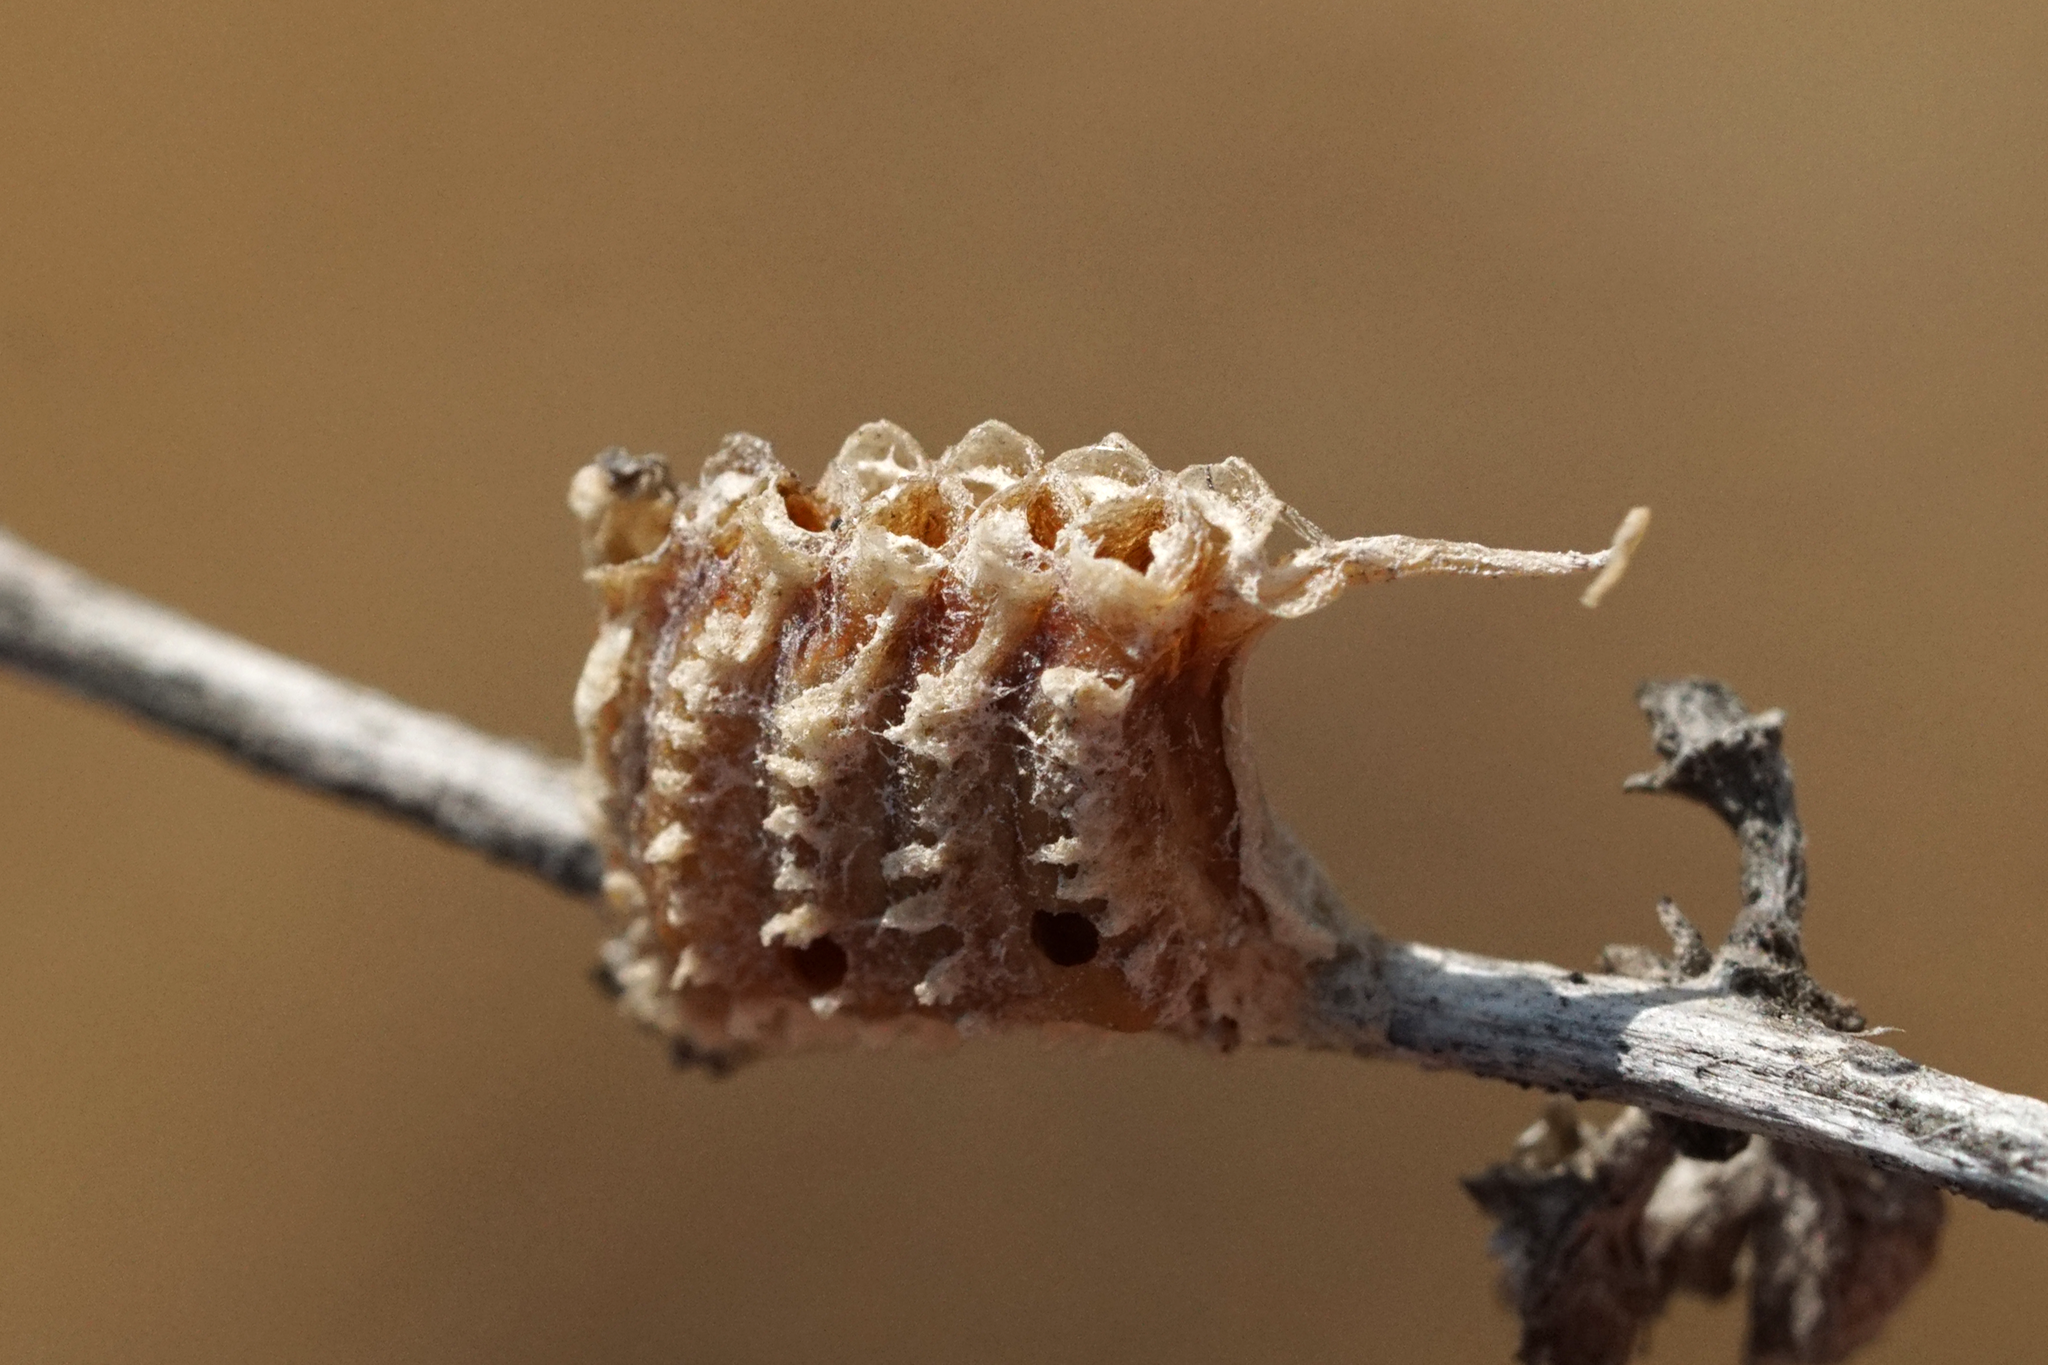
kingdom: Animalia
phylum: Arthropoda
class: Insecta
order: Mantodea
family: Empusidae
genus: Empusa
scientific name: Empusa fasciata
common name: Devil's mare
